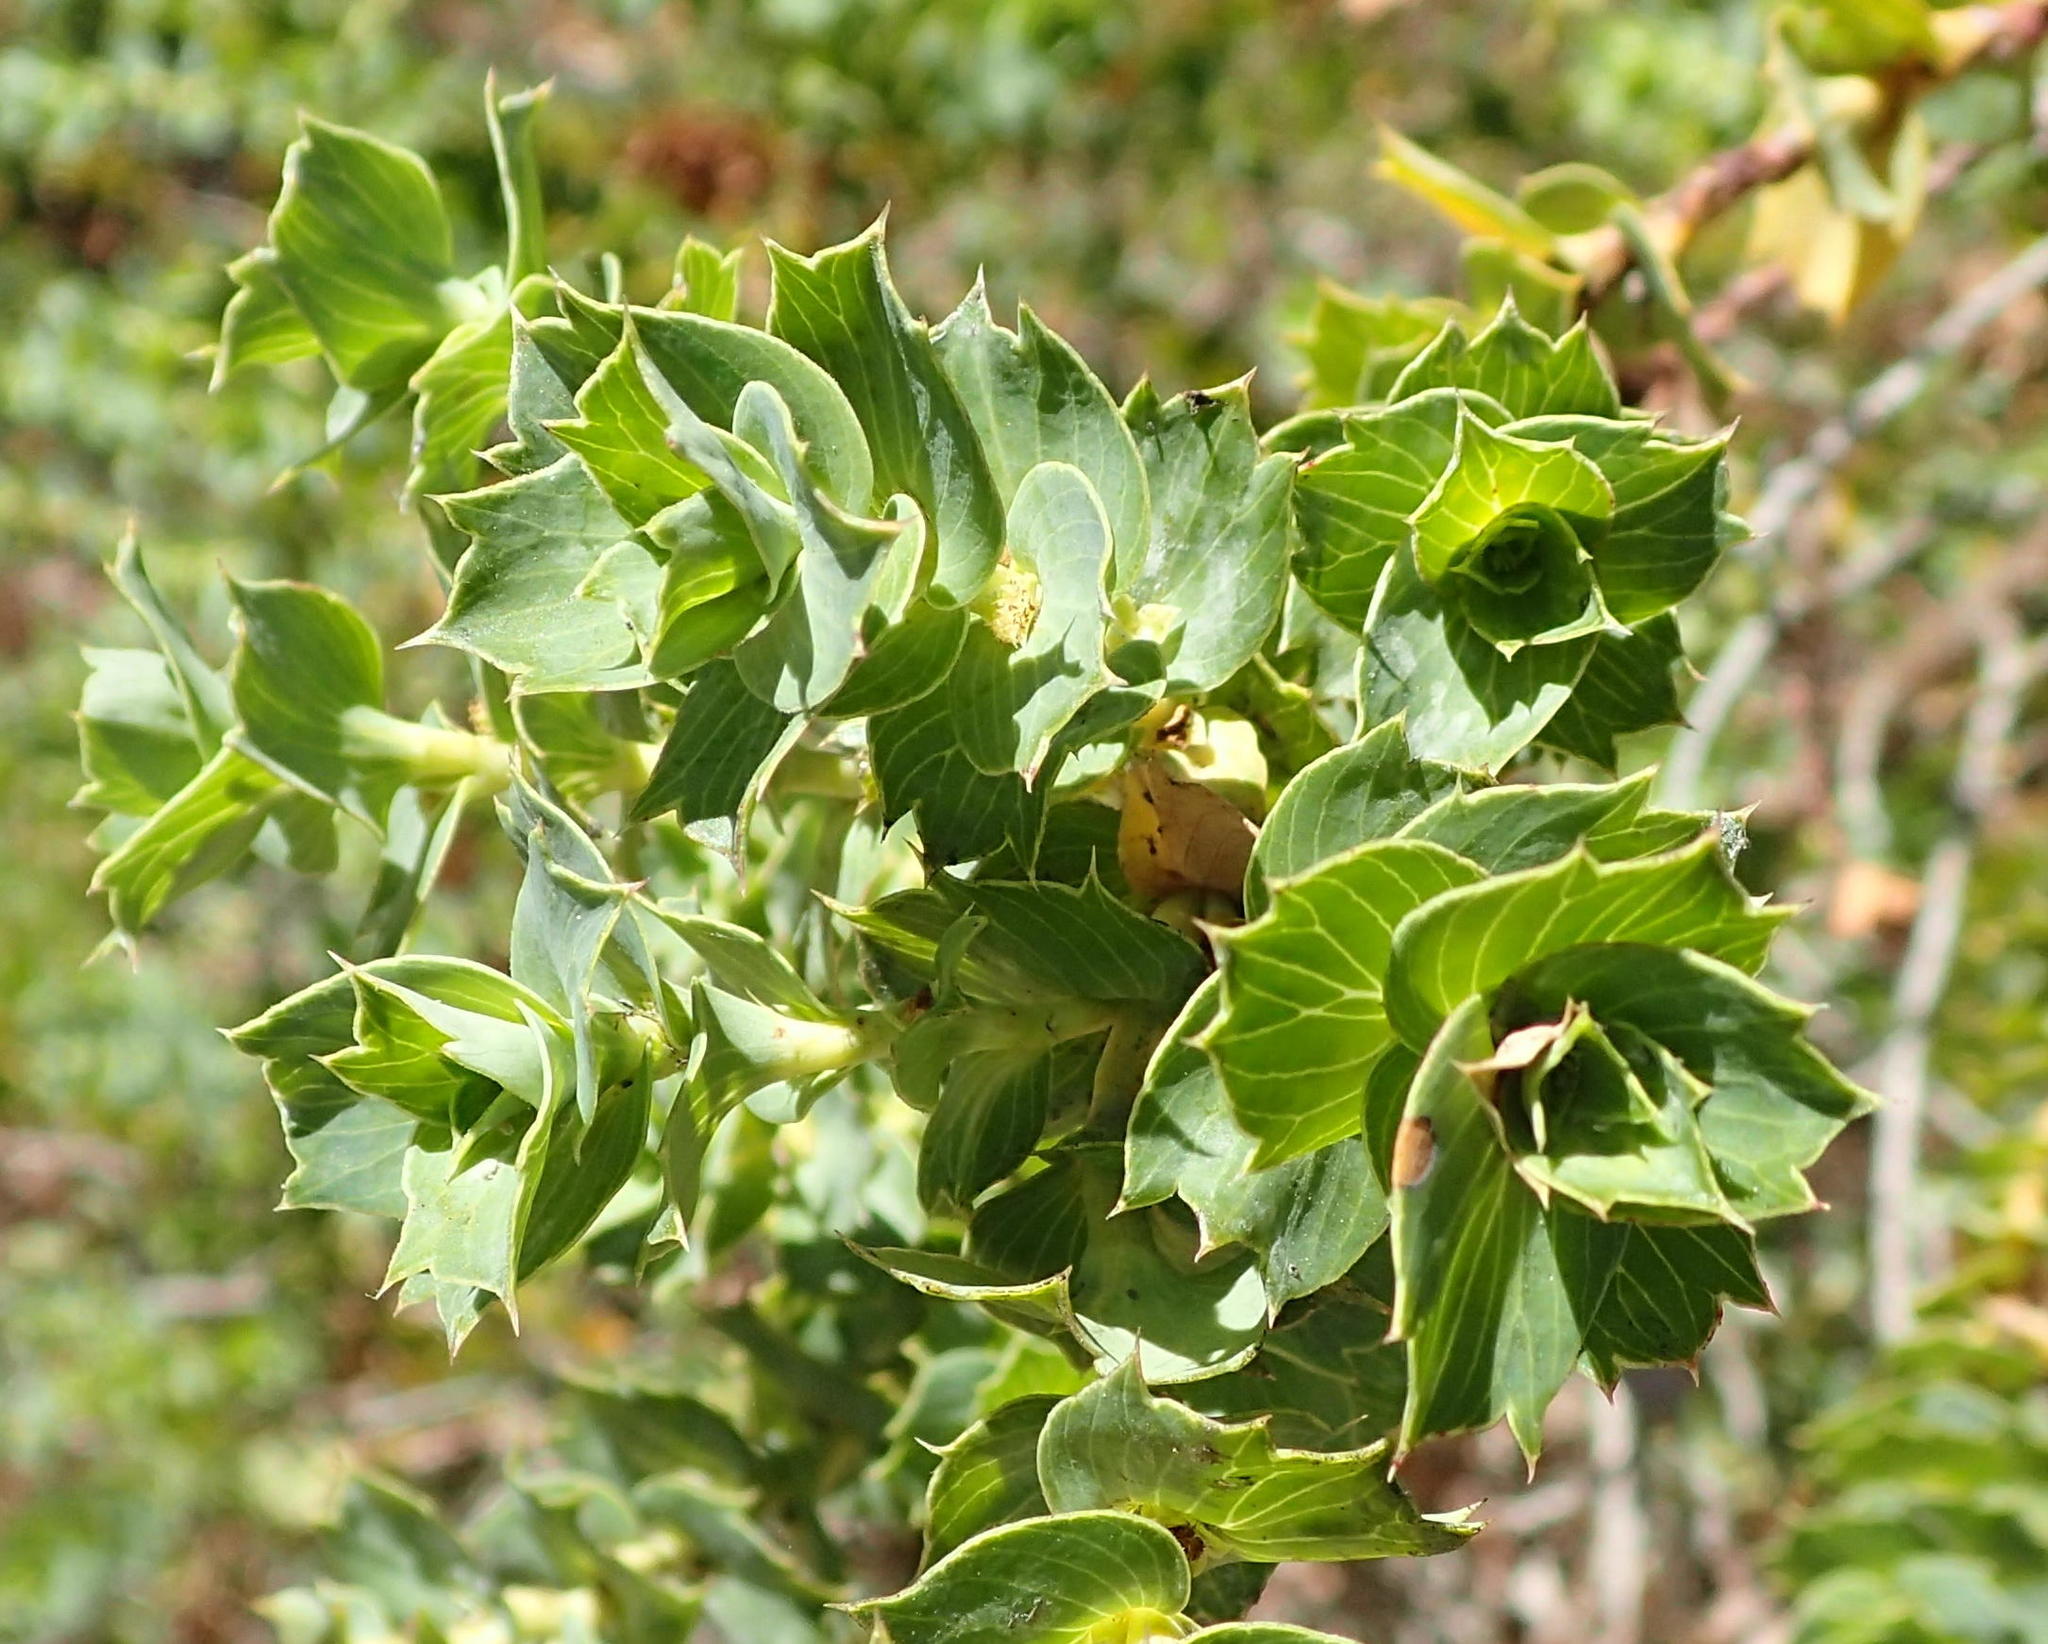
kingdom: Plantae
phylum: Tracheophyta
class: Magnoliopsida
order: Rosales
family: Rosaceae
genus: Cliffortia
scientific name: Cliffortia ilicifolia
